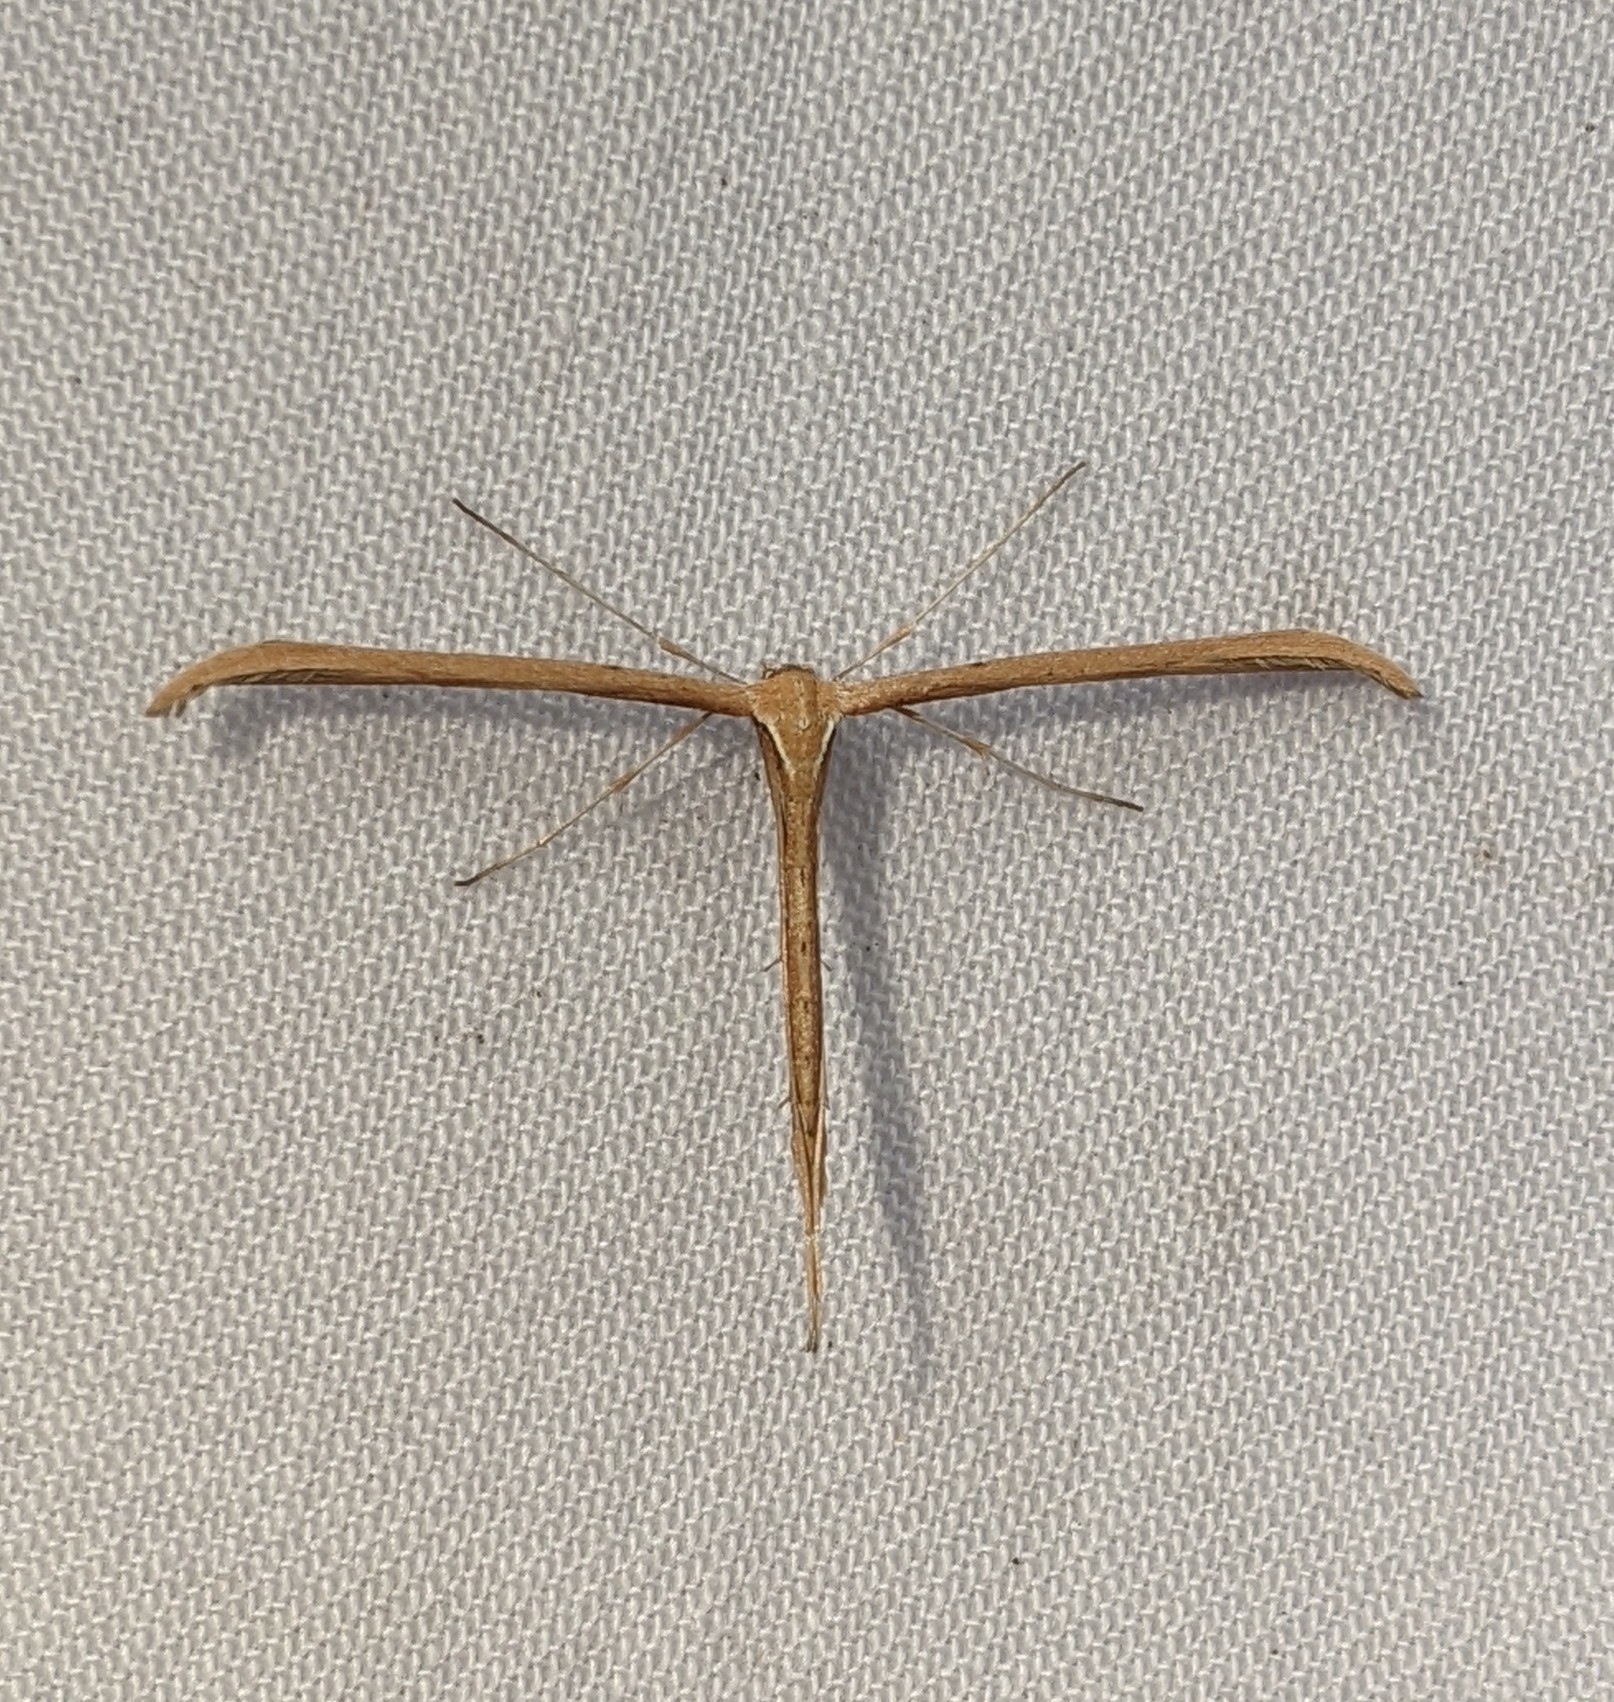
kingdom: Animalia
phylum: Arthropoda
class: Insecta
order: Lepidoptera
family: Pterophoridae
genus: Emmelina
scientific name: Emmelina monodactyla
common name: Common plume
